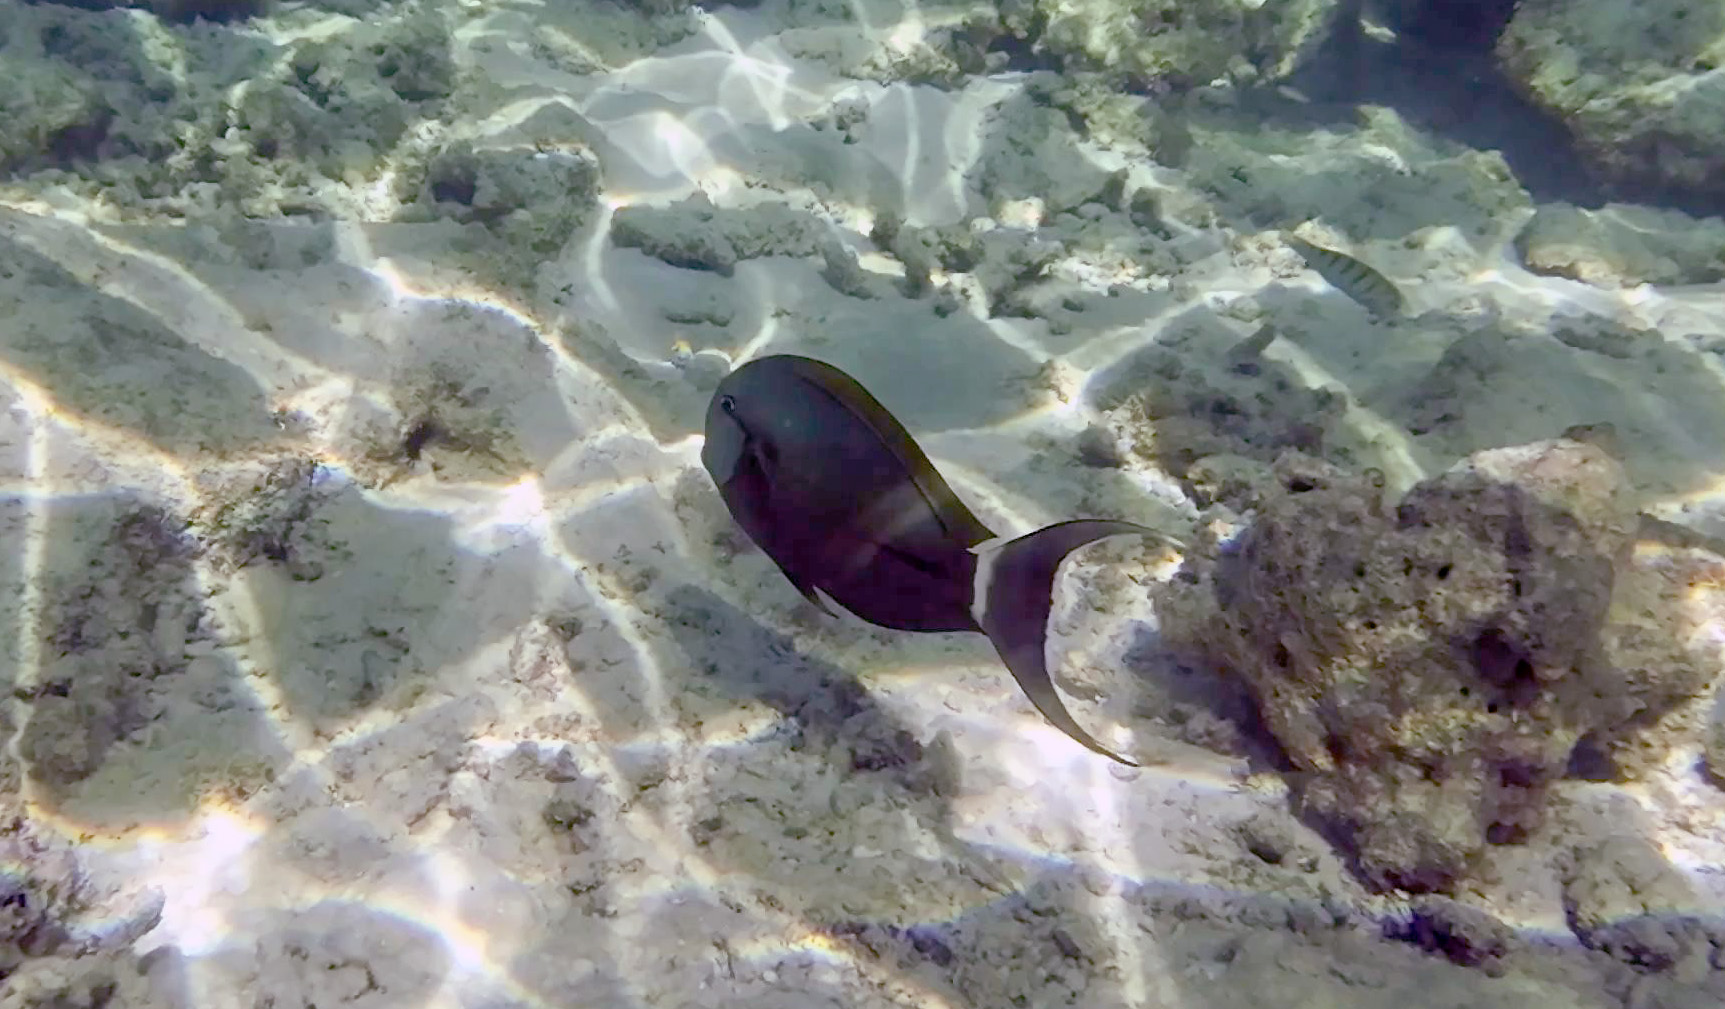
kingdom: Animalia
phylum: Chordata
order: Perciformes
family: Acanthuridae
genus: Acanthurus
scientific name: Acanthurus nigricauda
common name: Black-barred surgeonfish
